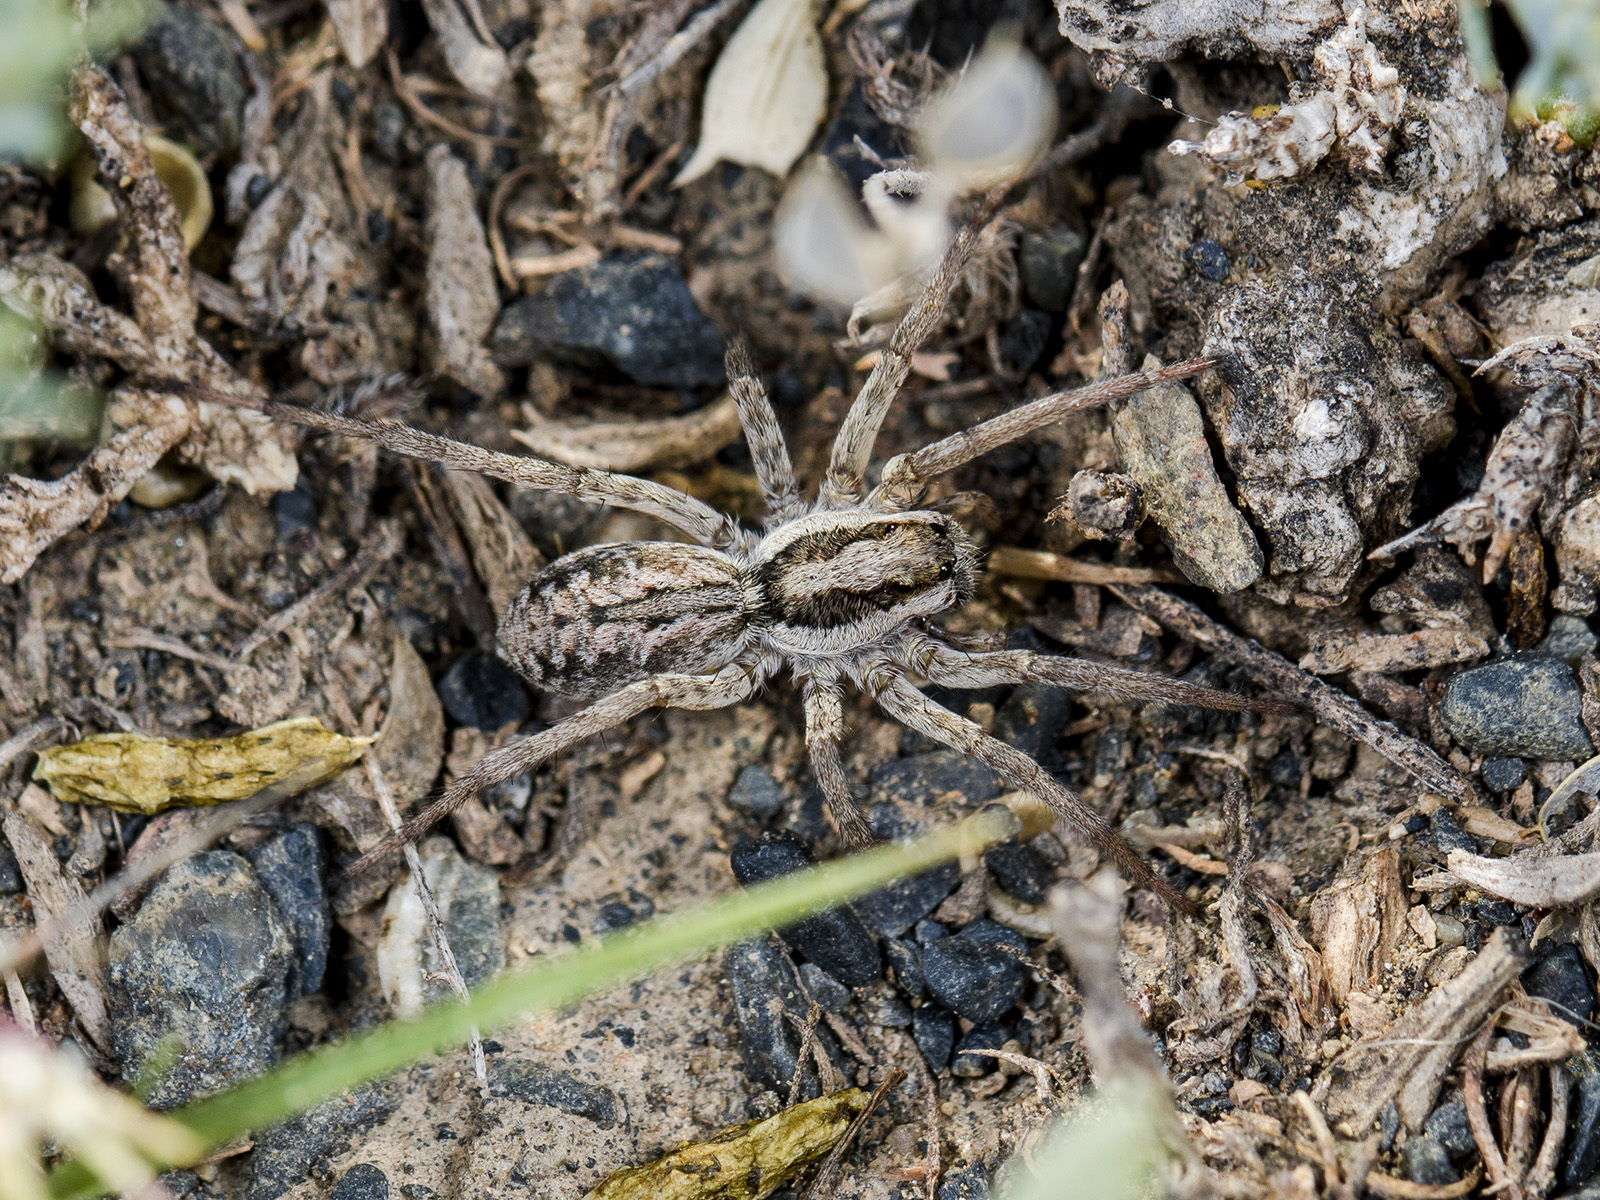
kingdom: Animalia
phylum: Arthropoda
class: Arachnida
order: Araneae
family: Lycosidae
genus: Lycosa
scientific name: Lycosa praegrandis
